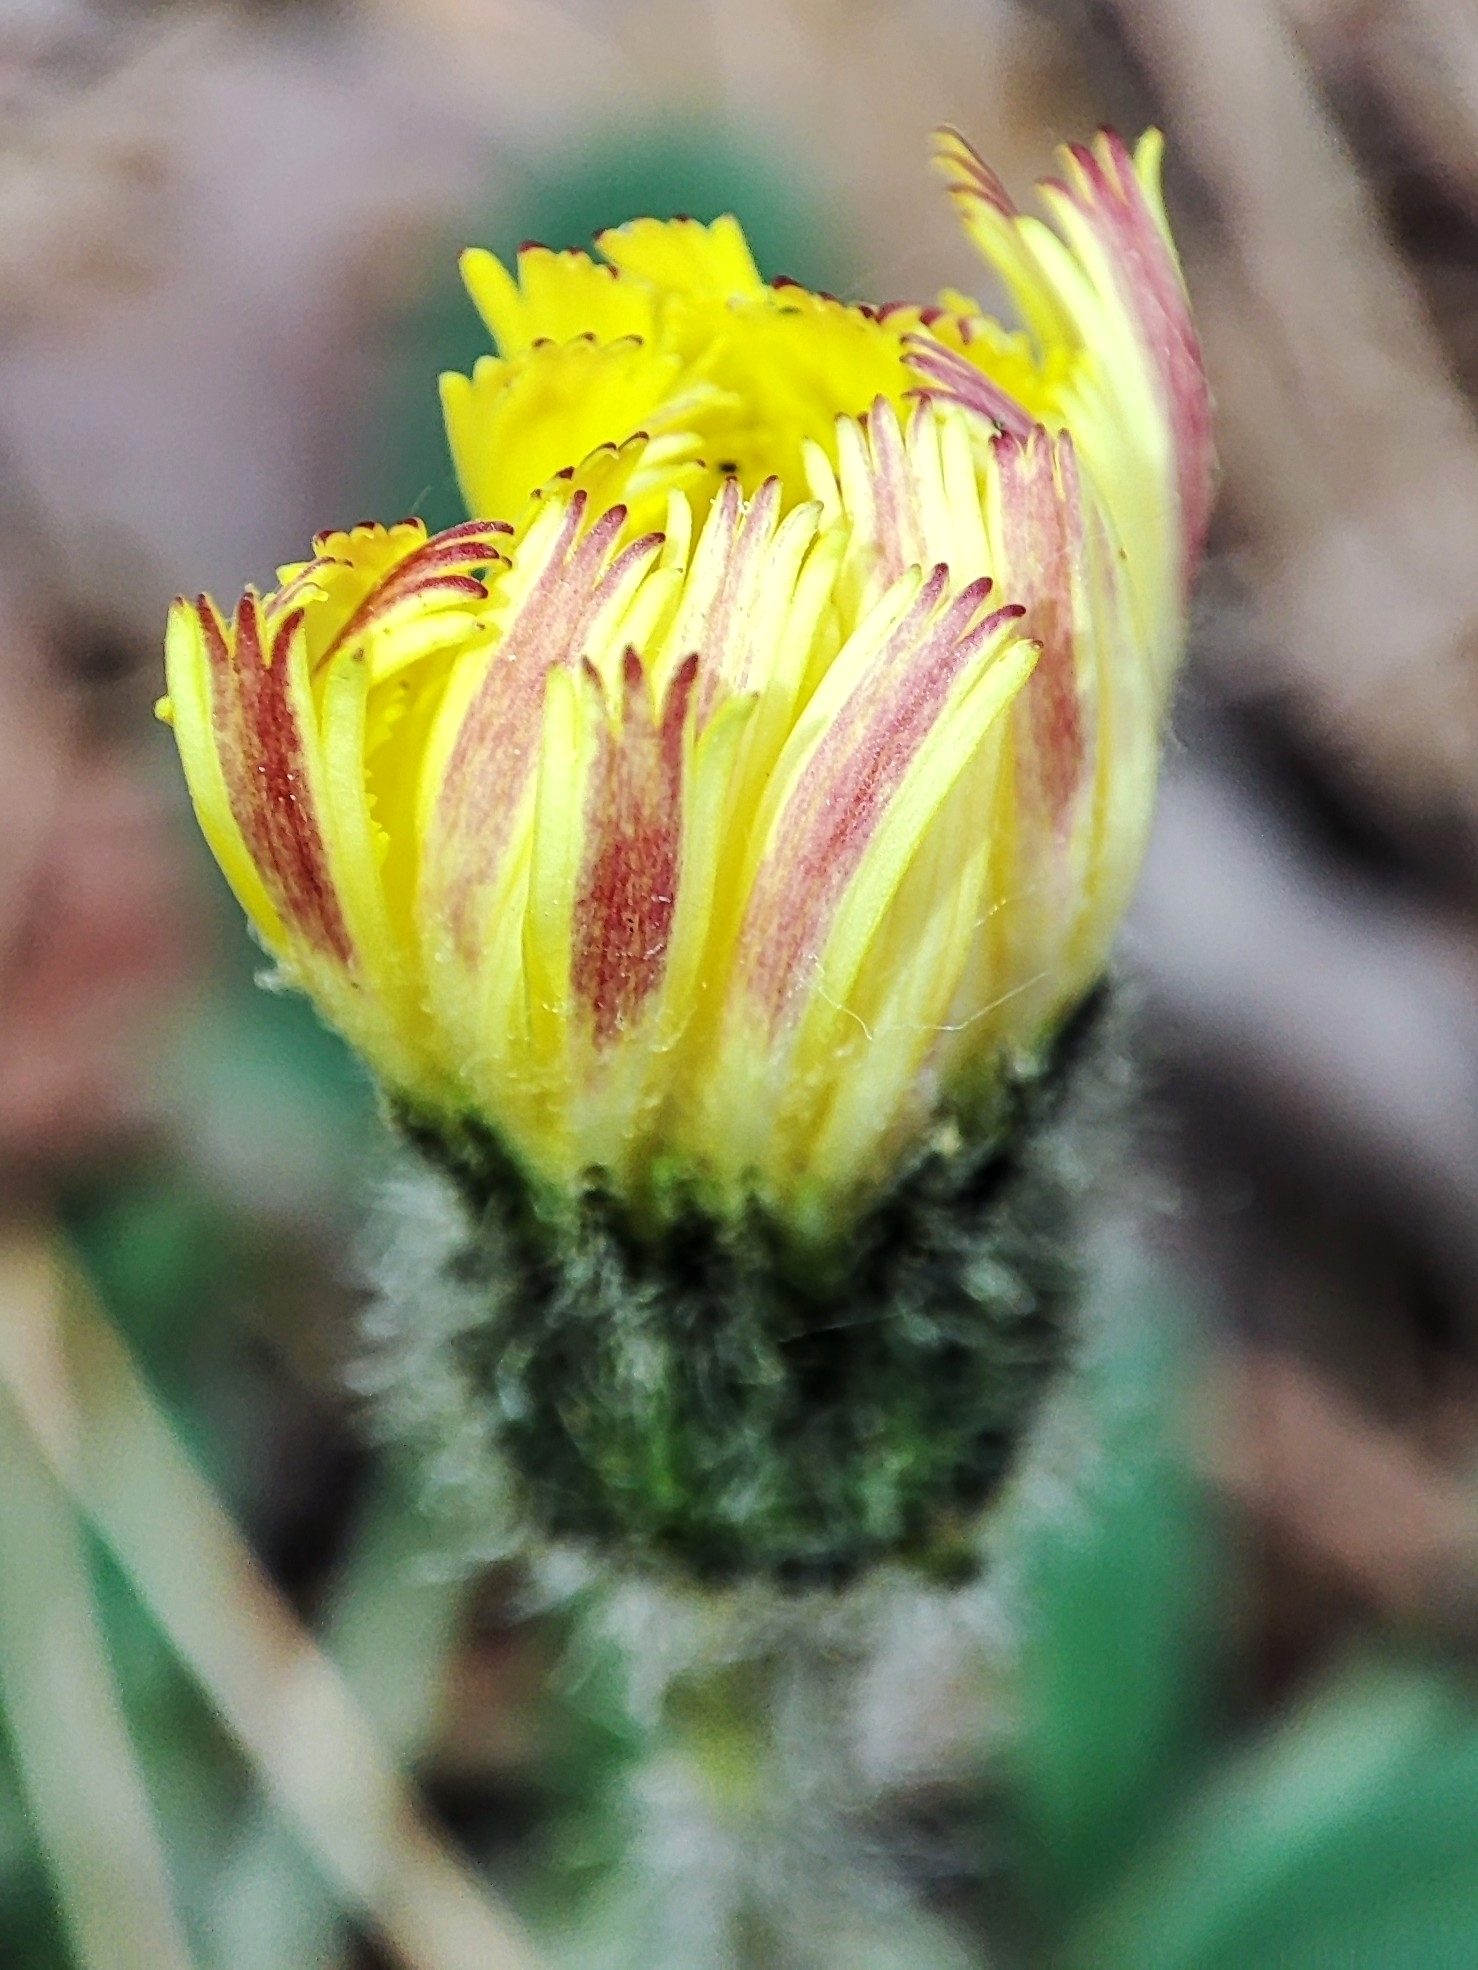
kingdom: Plantae
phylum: Tracheophyta
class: Magnoliopsida
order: Asterales
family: Asteraceae
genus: Pilosella
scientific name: Pilosella officinarum
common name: Mouse-ear hawkweed
